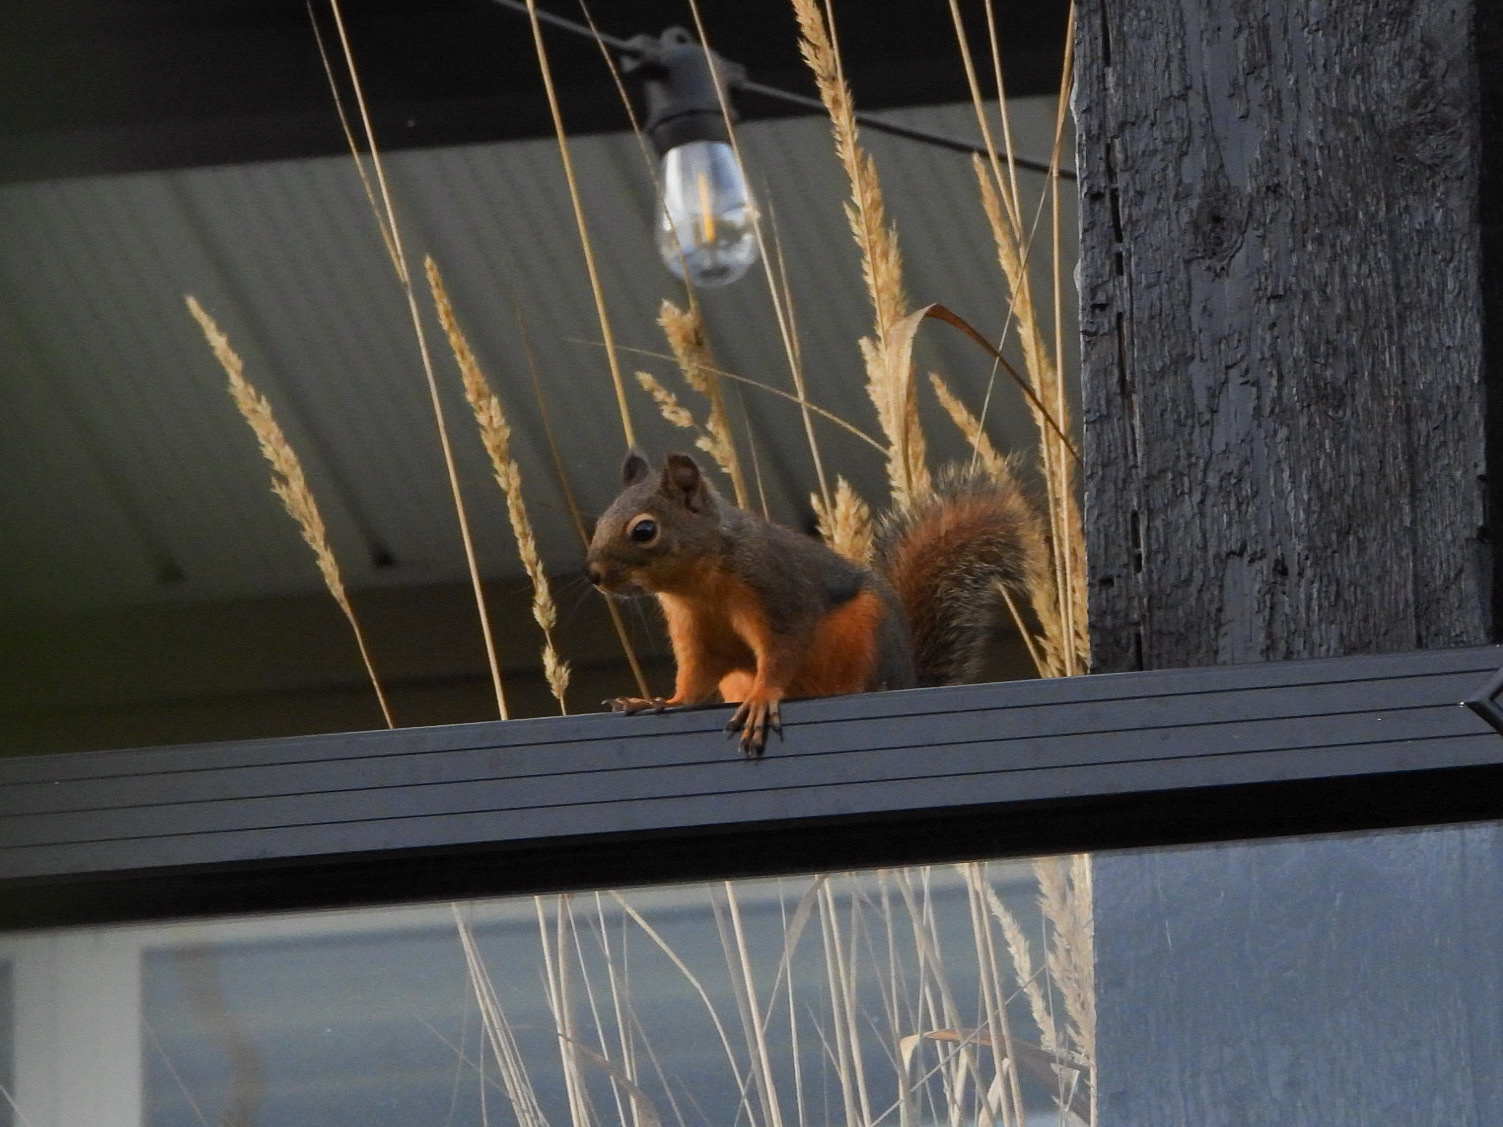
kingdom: Animalia
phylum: Chordata
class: Mammalia
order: Rodentia
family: Sciuridae
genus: Tamiasciurus
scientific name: Tamiasciurus douglasii
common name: Douglas's squirrel
